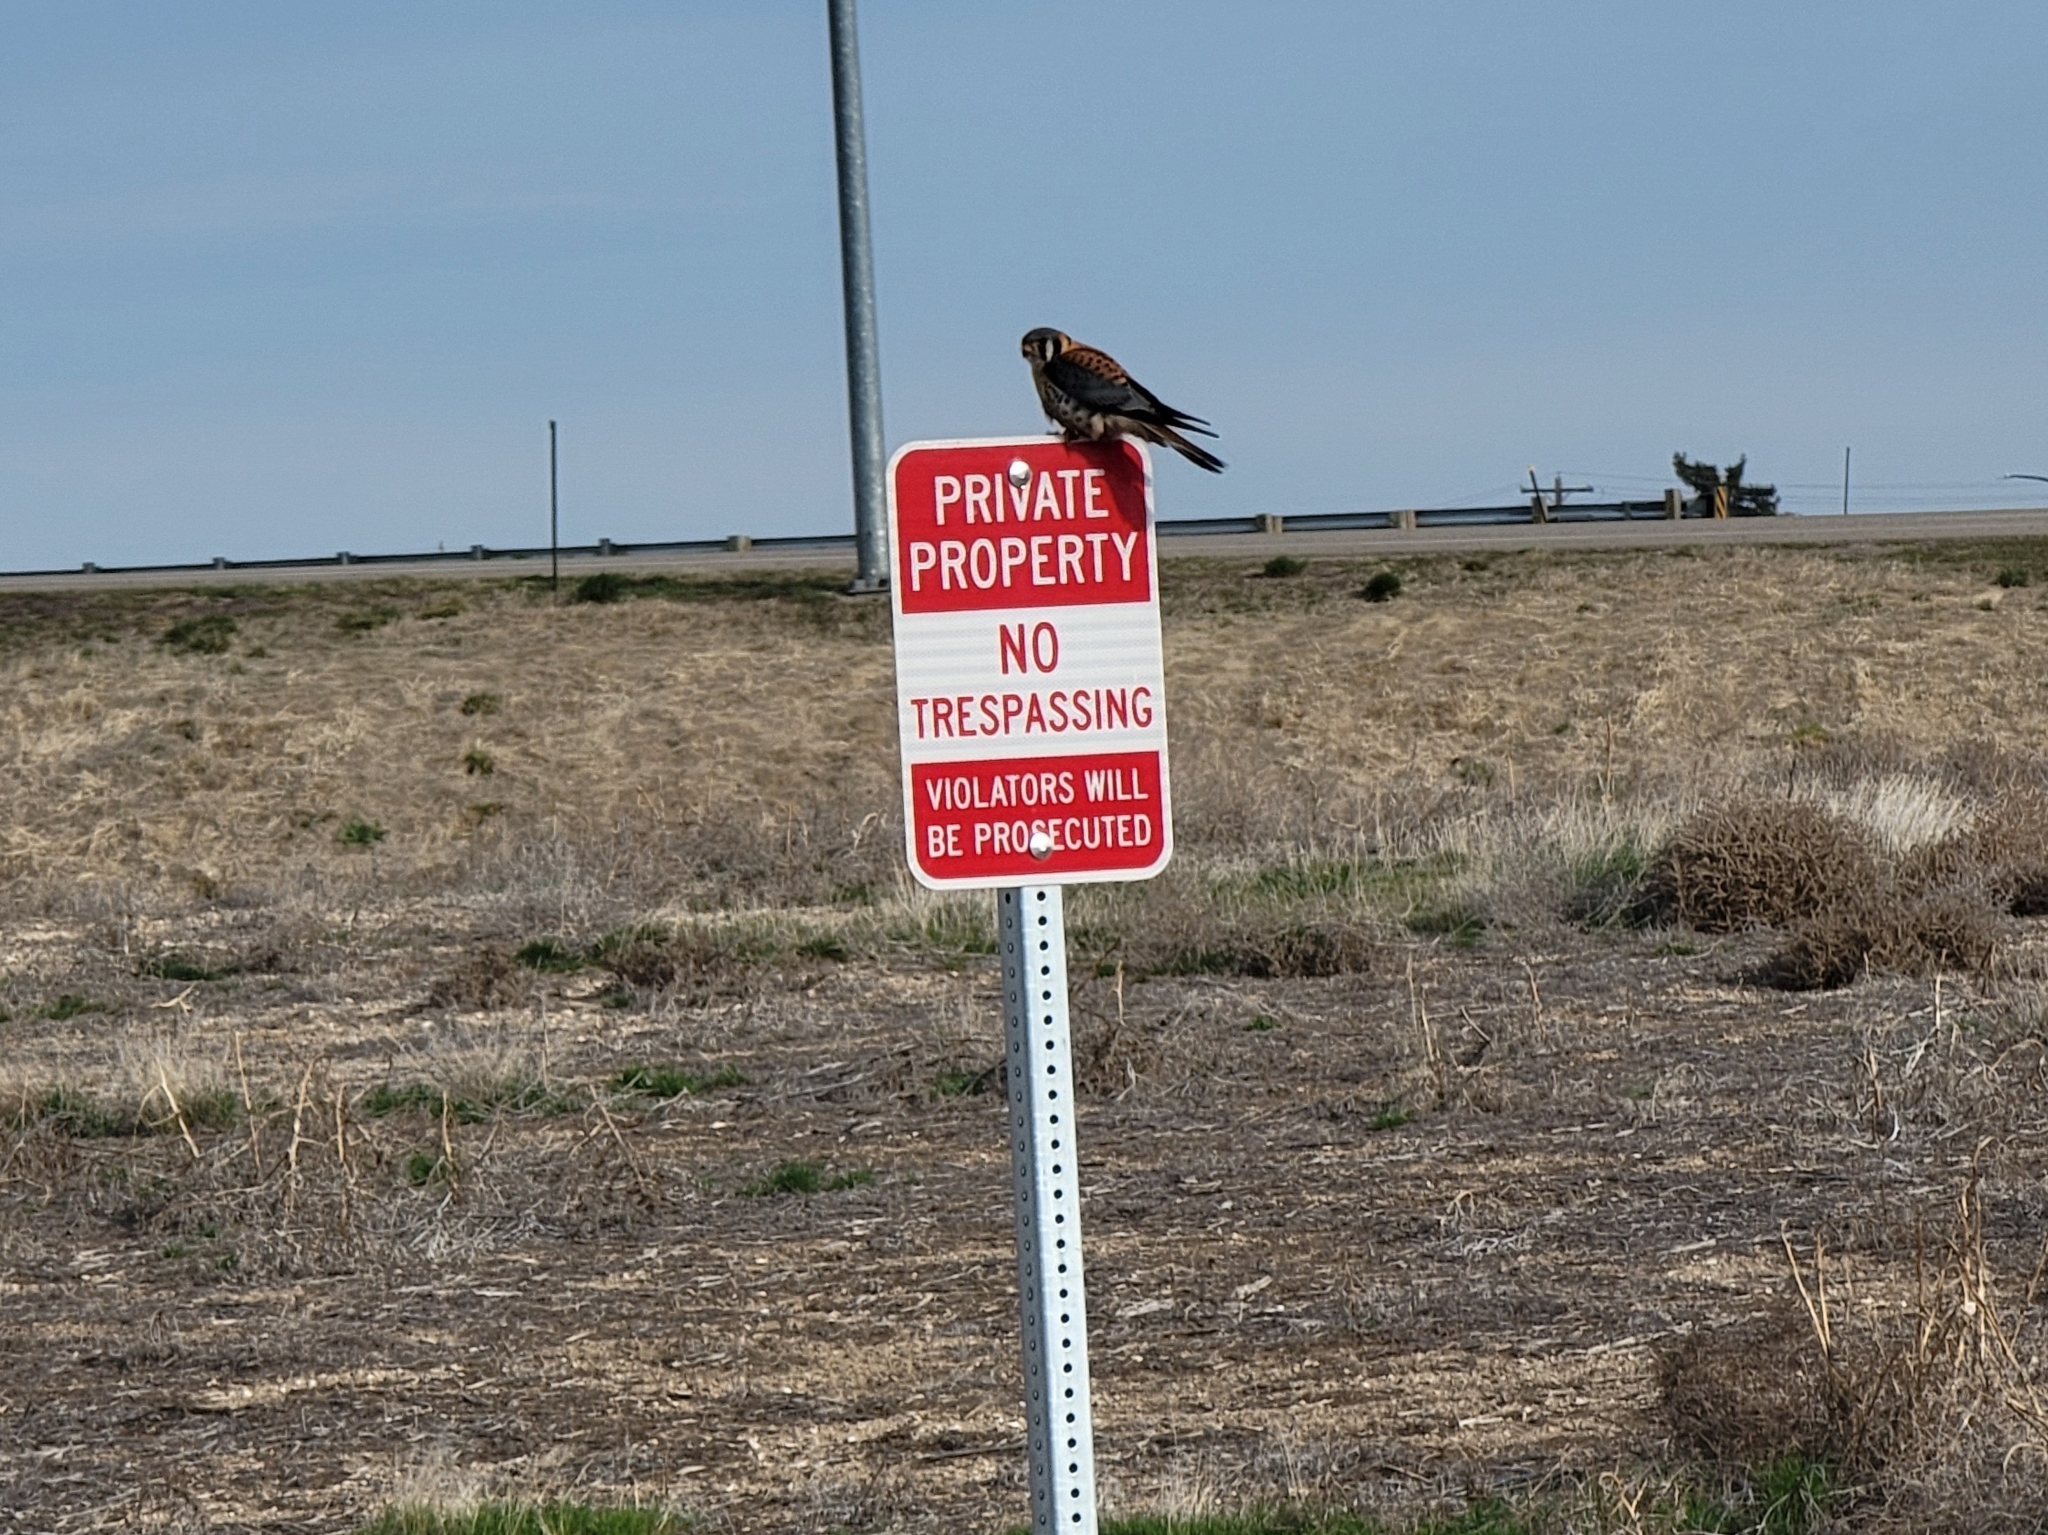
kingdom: Animalia
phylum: Chordata
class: Aves
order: Falconiformes
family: Falconidae
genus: Falco
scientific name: Falco sparverius
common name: American kestrel
